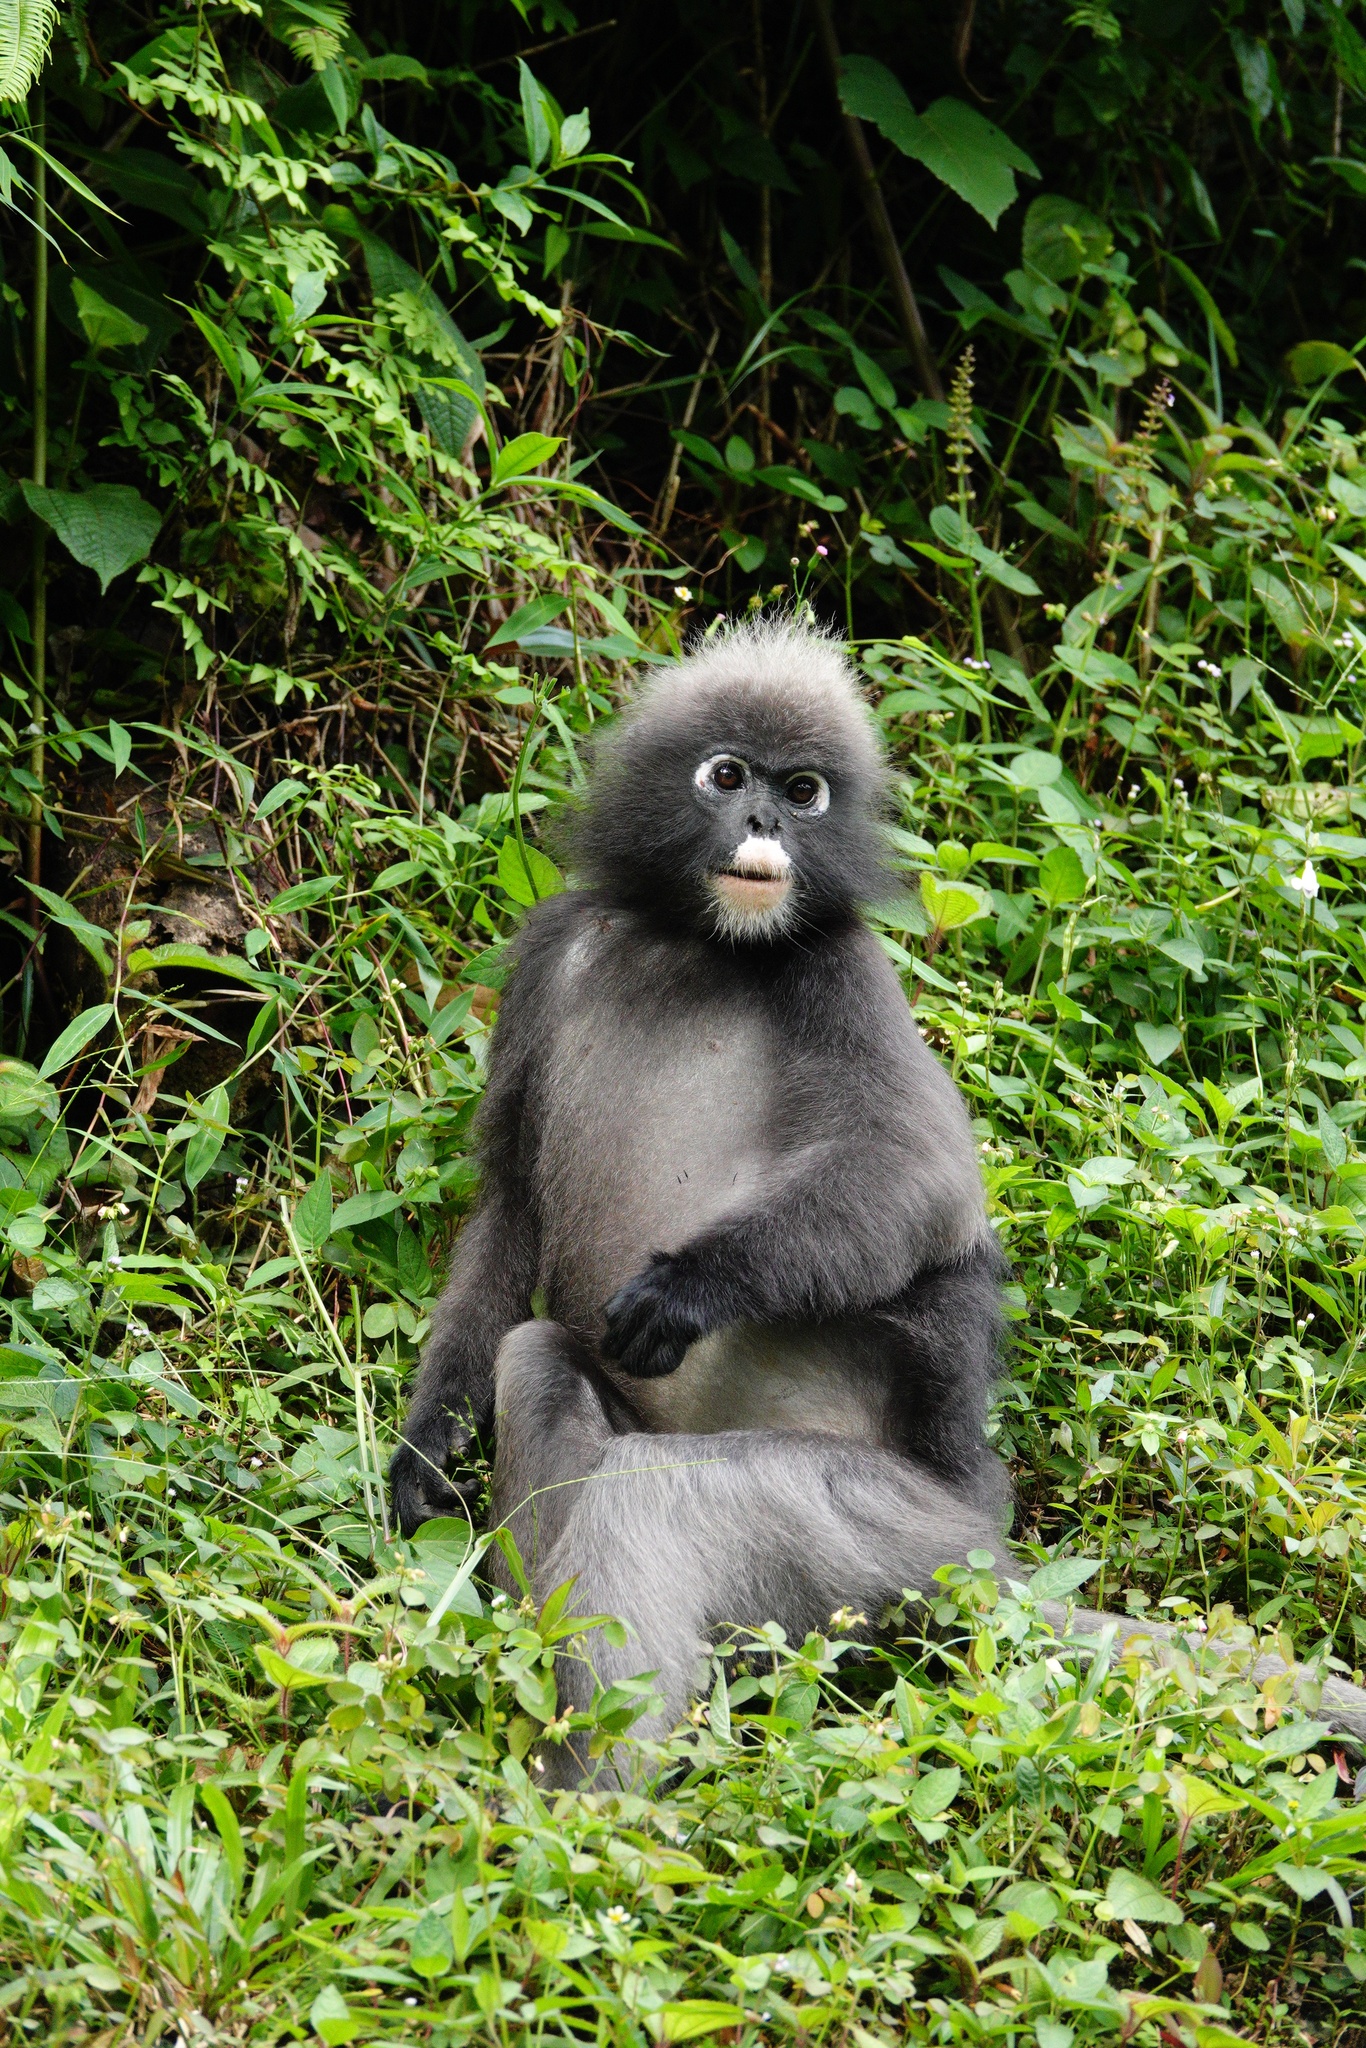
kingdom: Animalia
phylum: Chordata
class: Mammalia
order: Primates
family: Cercopithecidae
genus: Trachypithecus
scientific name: Trachypithecus obscurus
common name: Dusky leaf-monkey
